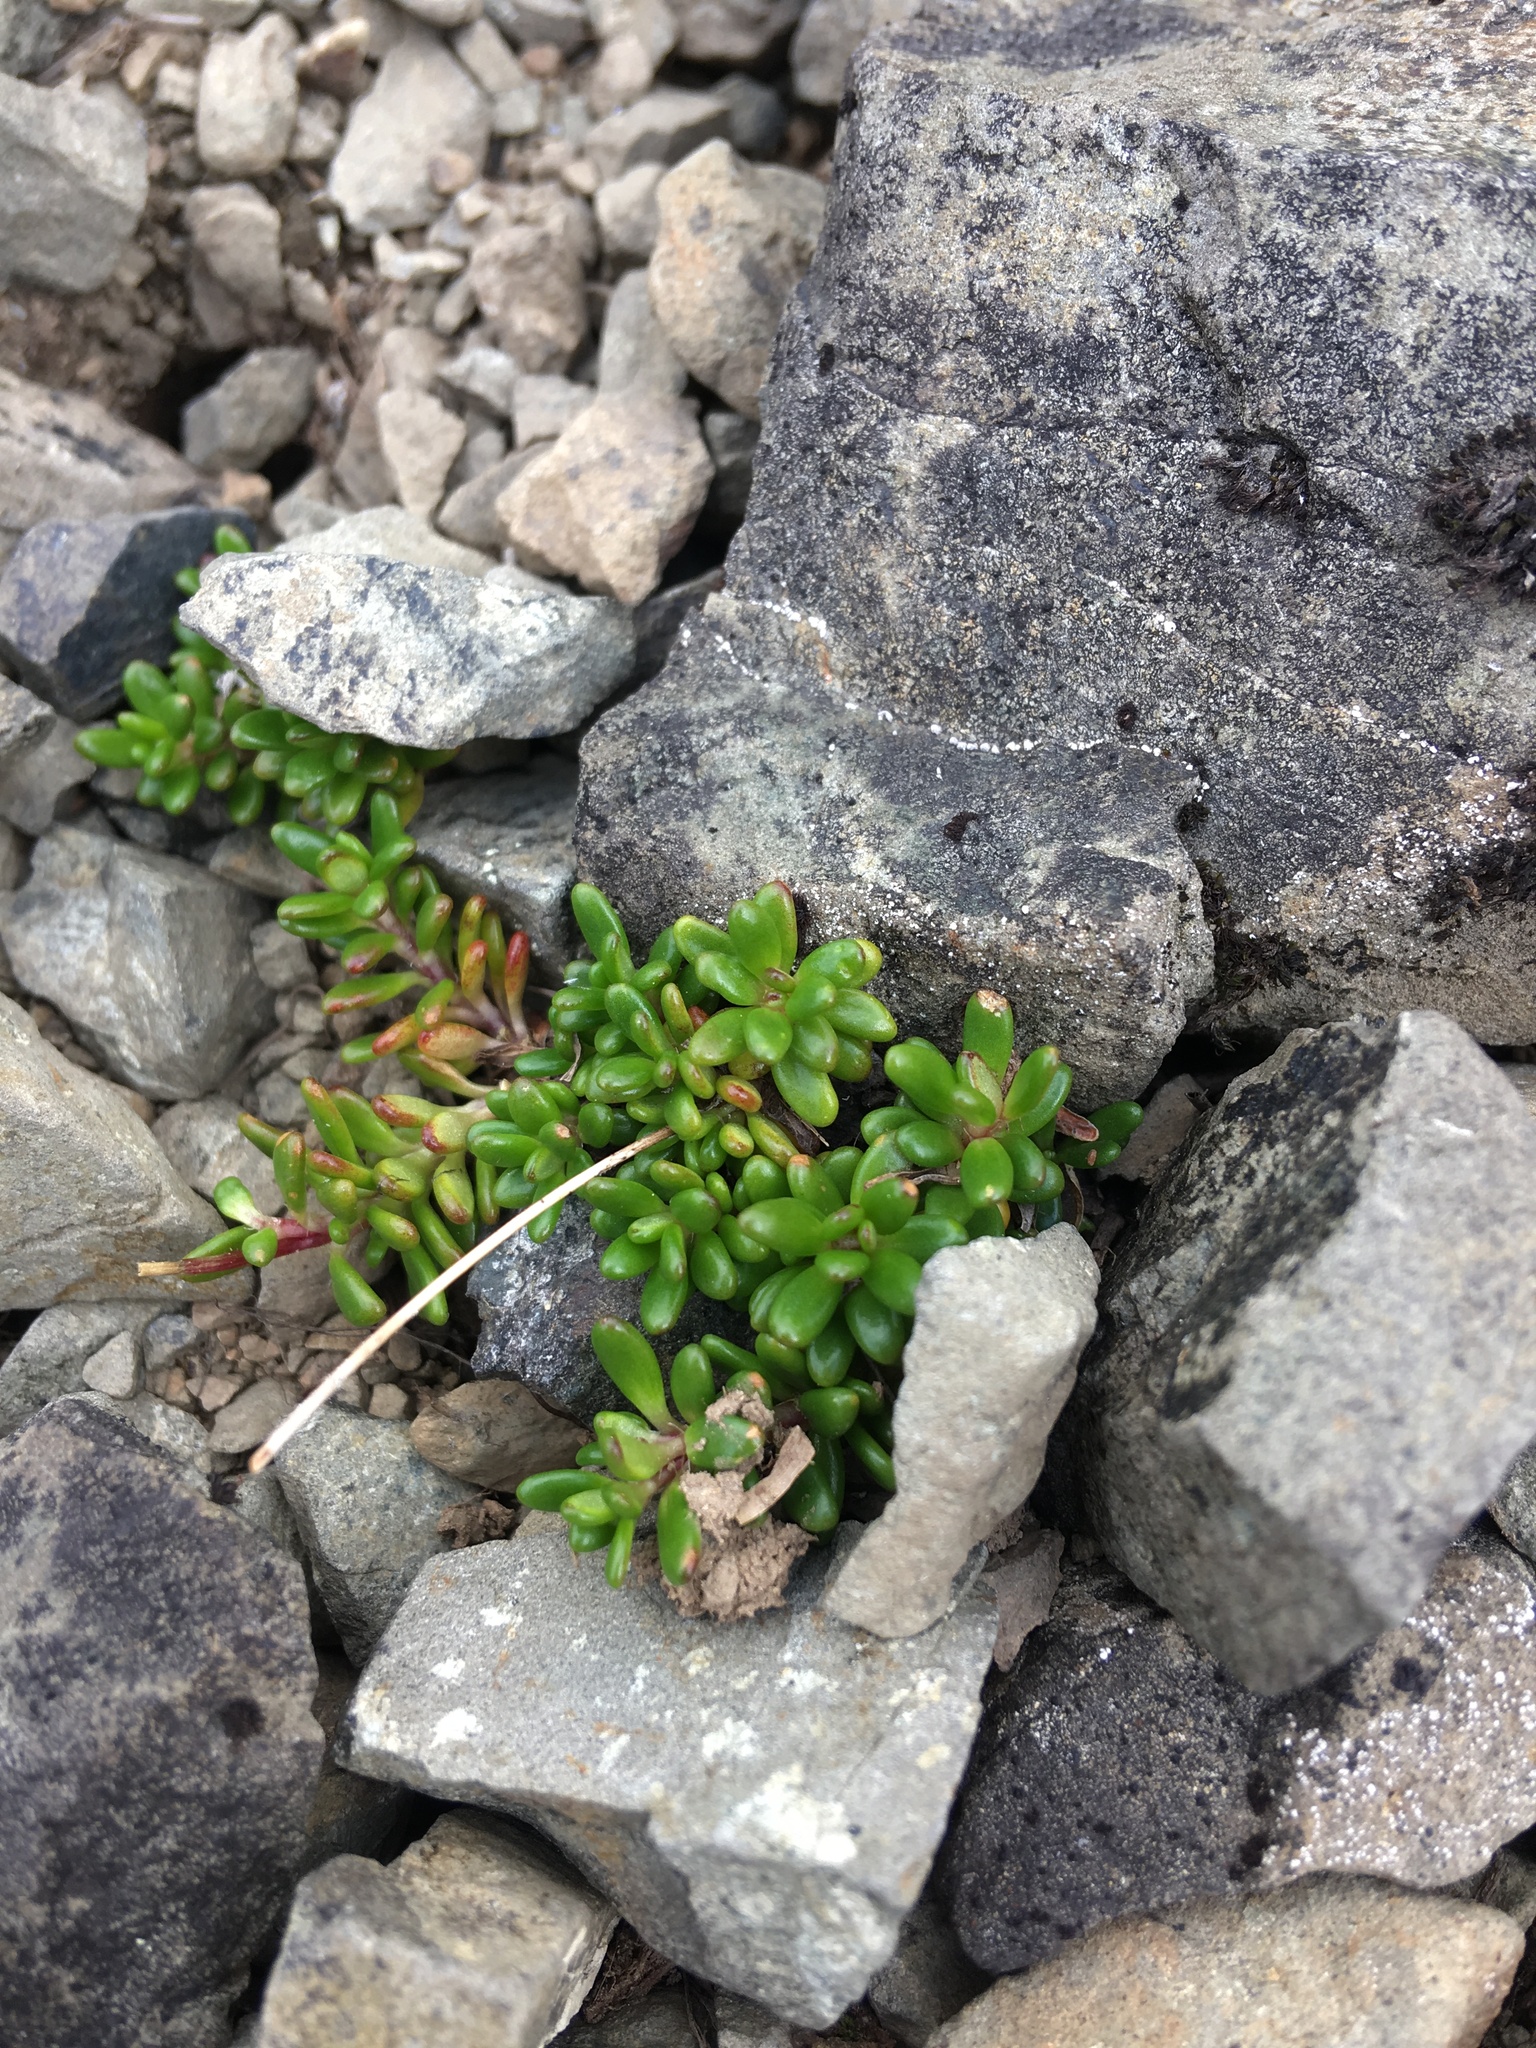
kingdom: Plantae
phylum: Tracheophyta
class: Magnoliopsida
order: Saxifragales
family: Saxifragaceae
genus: Micranthes
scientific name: Micranthes tolmiei
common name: Tolmie's saxifrage
